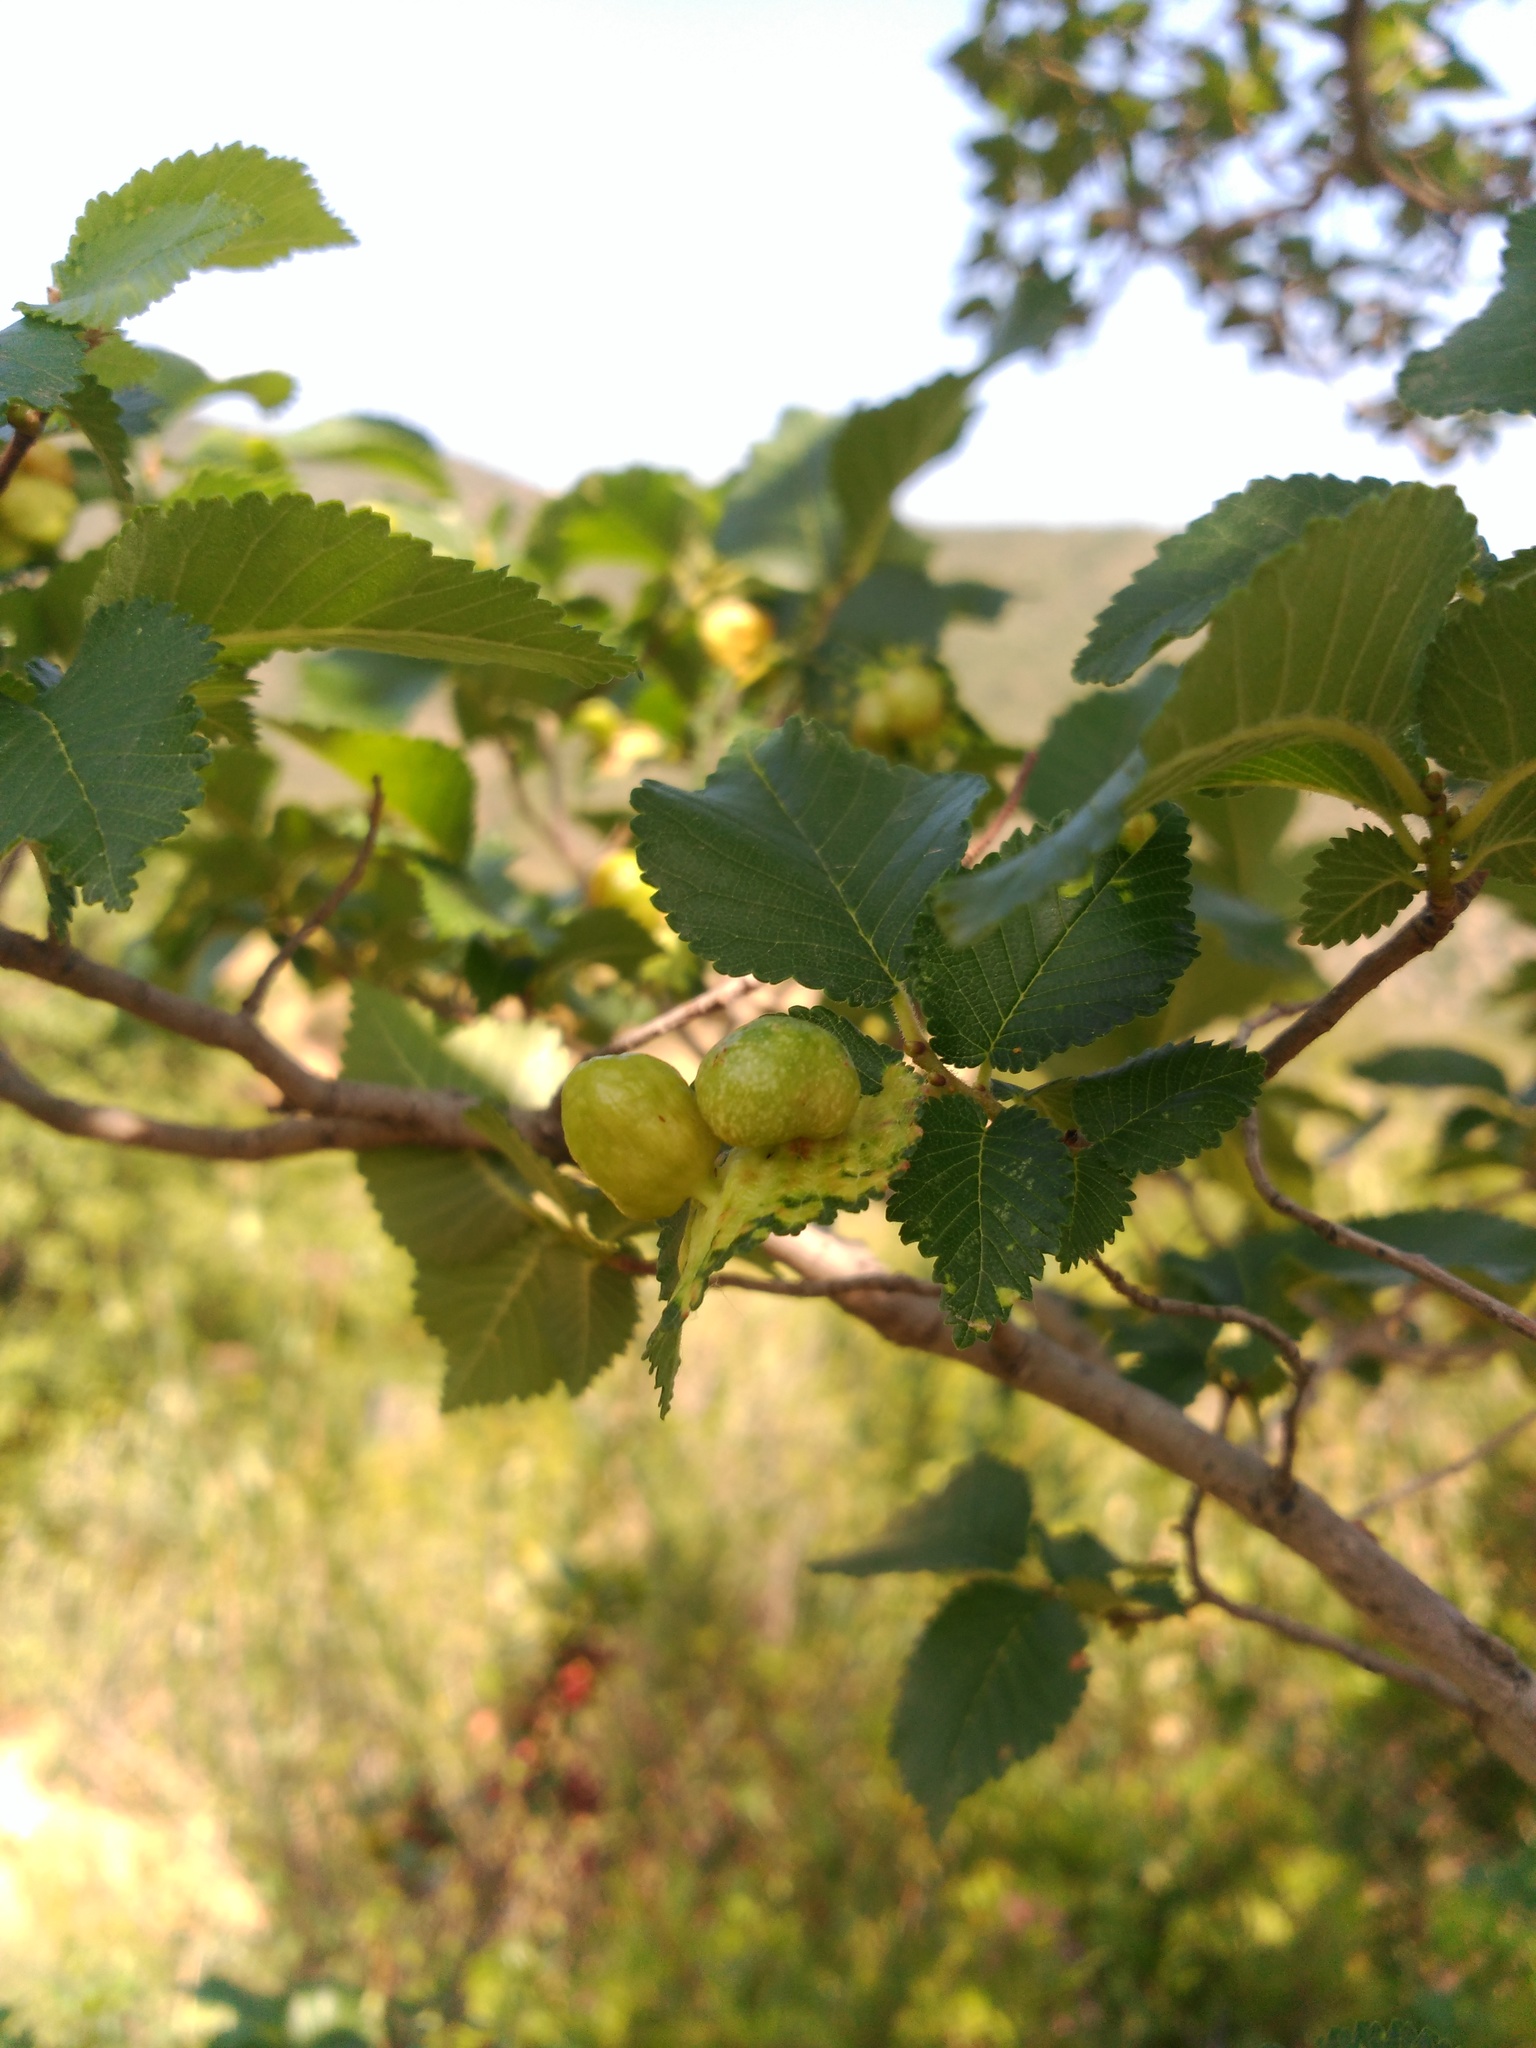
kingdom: Plantae
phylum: Tracheophyta
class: Magnoliopsida
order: Rosales
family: Ulmaceae
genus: Ulmus
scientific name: Ulmus minor
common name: Small-leaved elm
